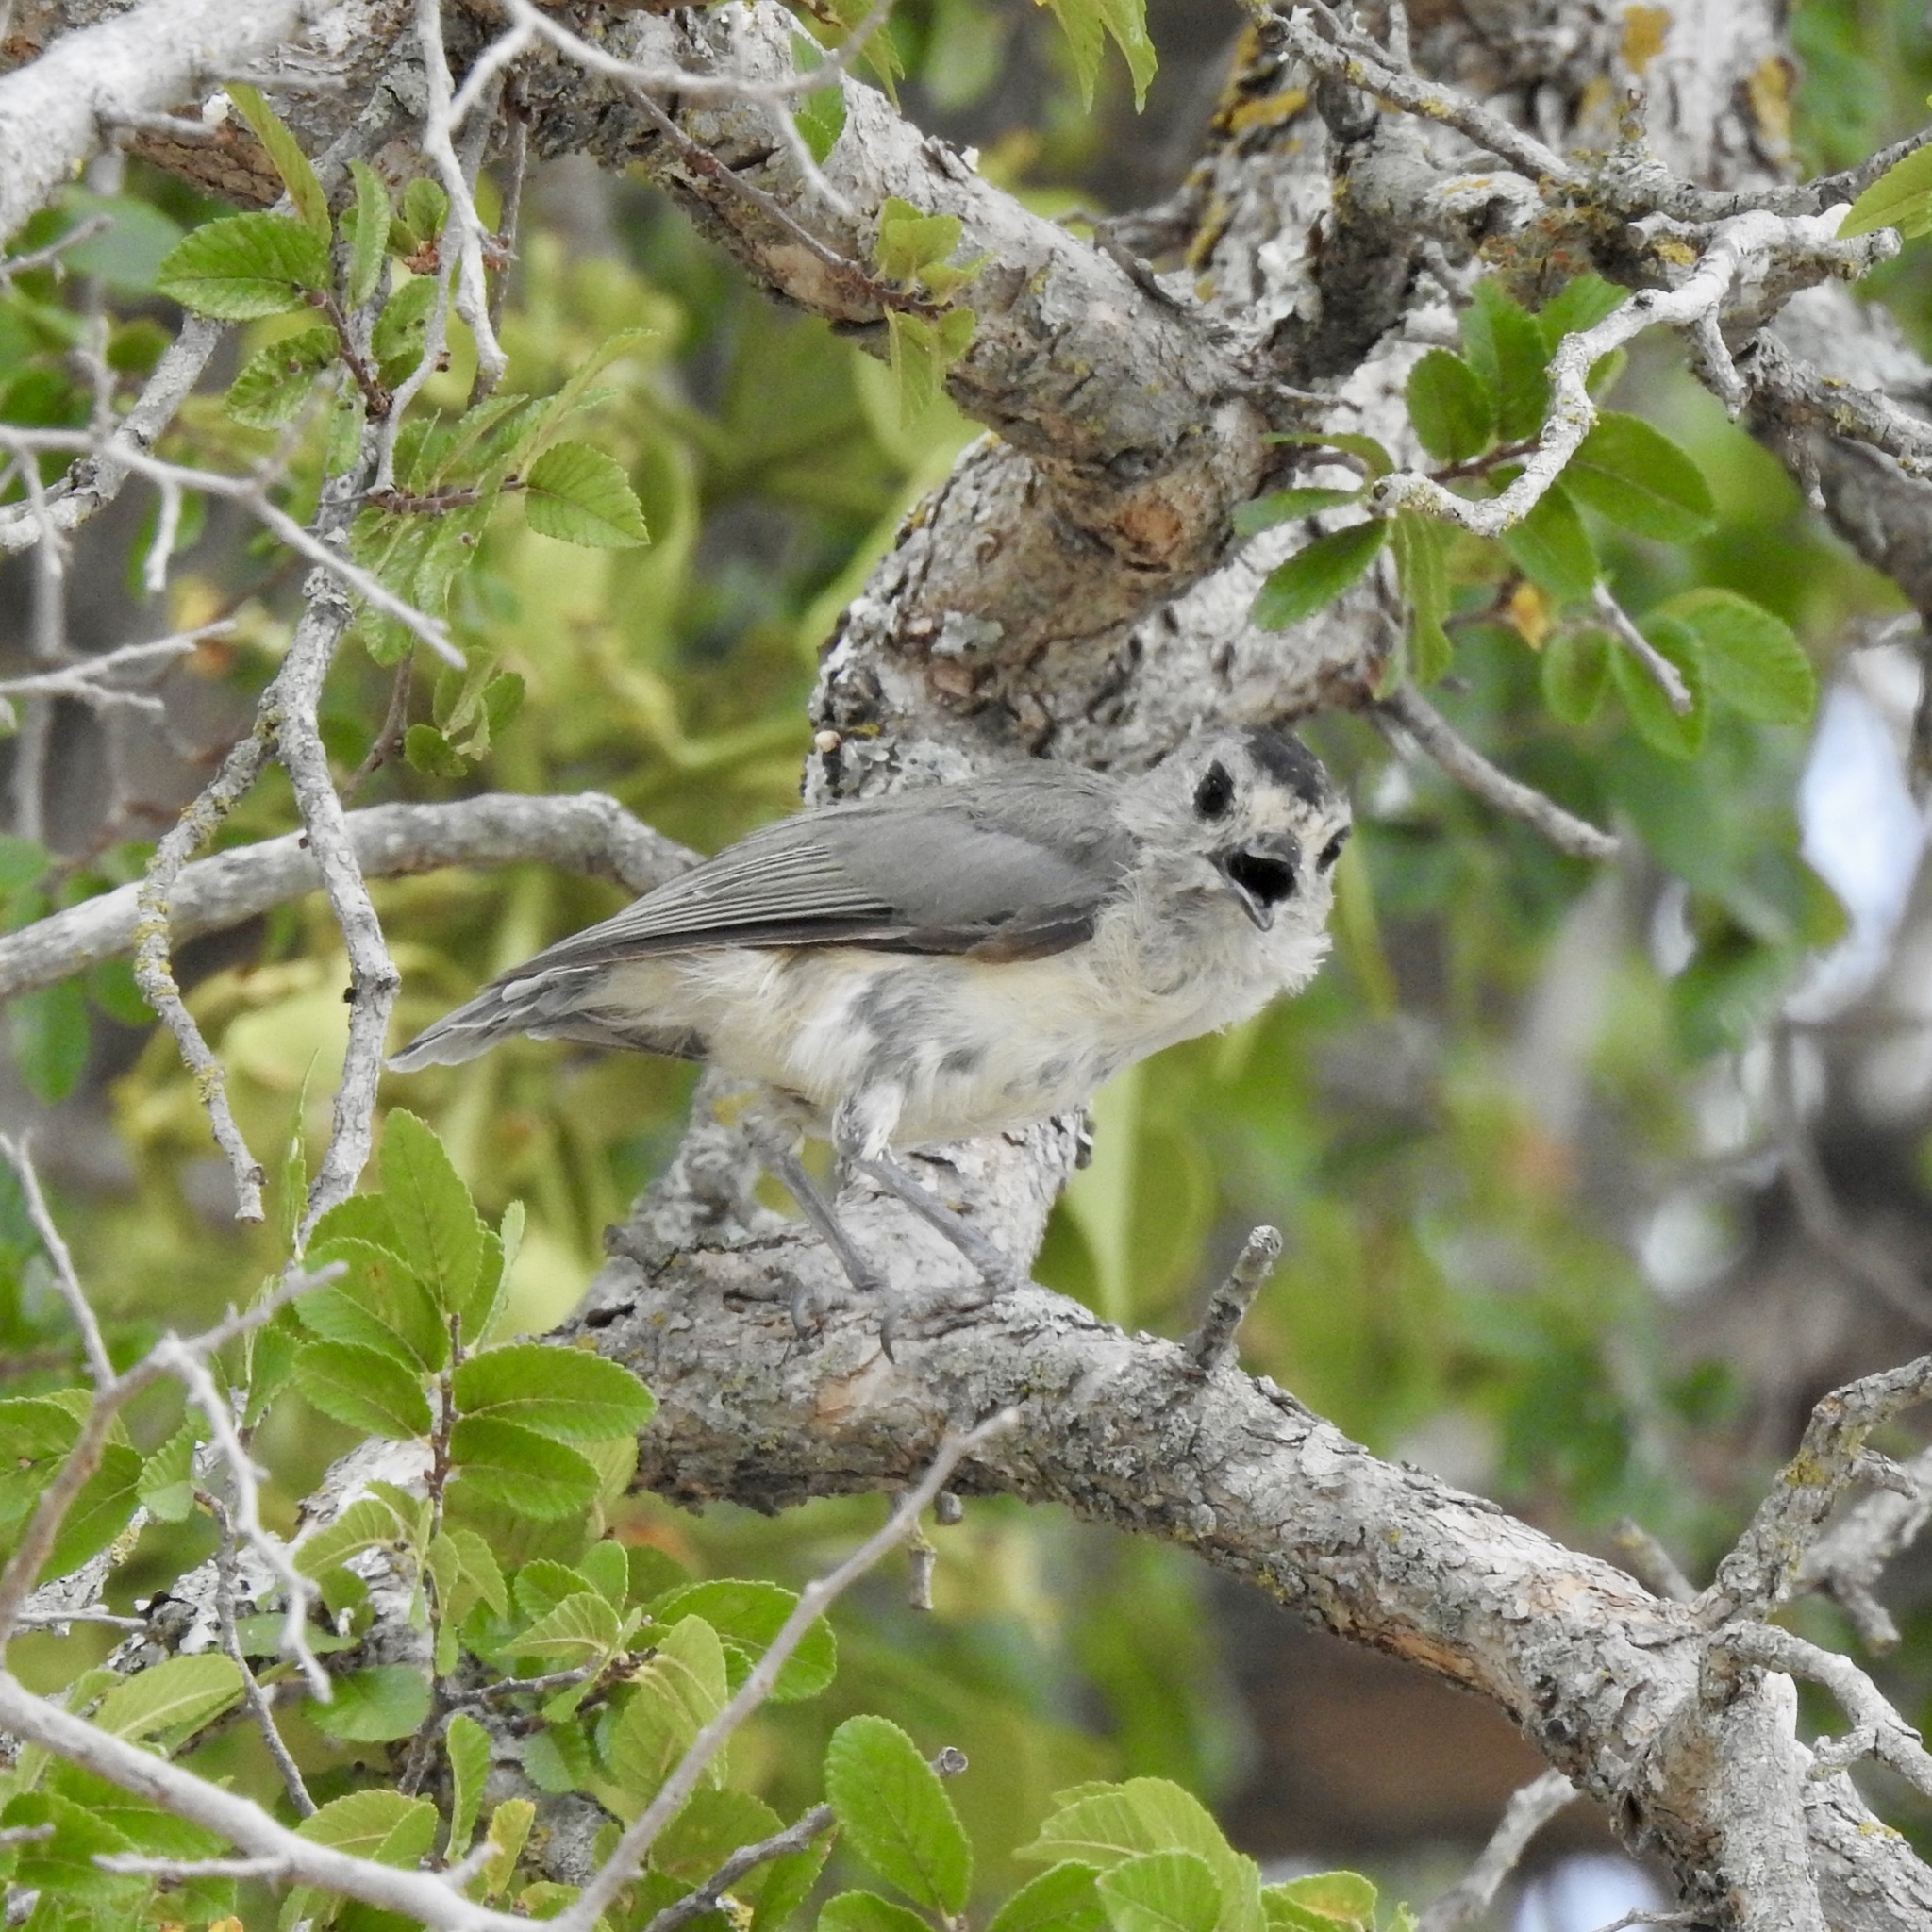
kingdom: Animalia
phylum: Chordata
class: Aves
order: Passeriformes
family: Paridae
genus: Baeolophus
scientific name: Baeolophus atricristatus
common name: Black-crested titmouse
